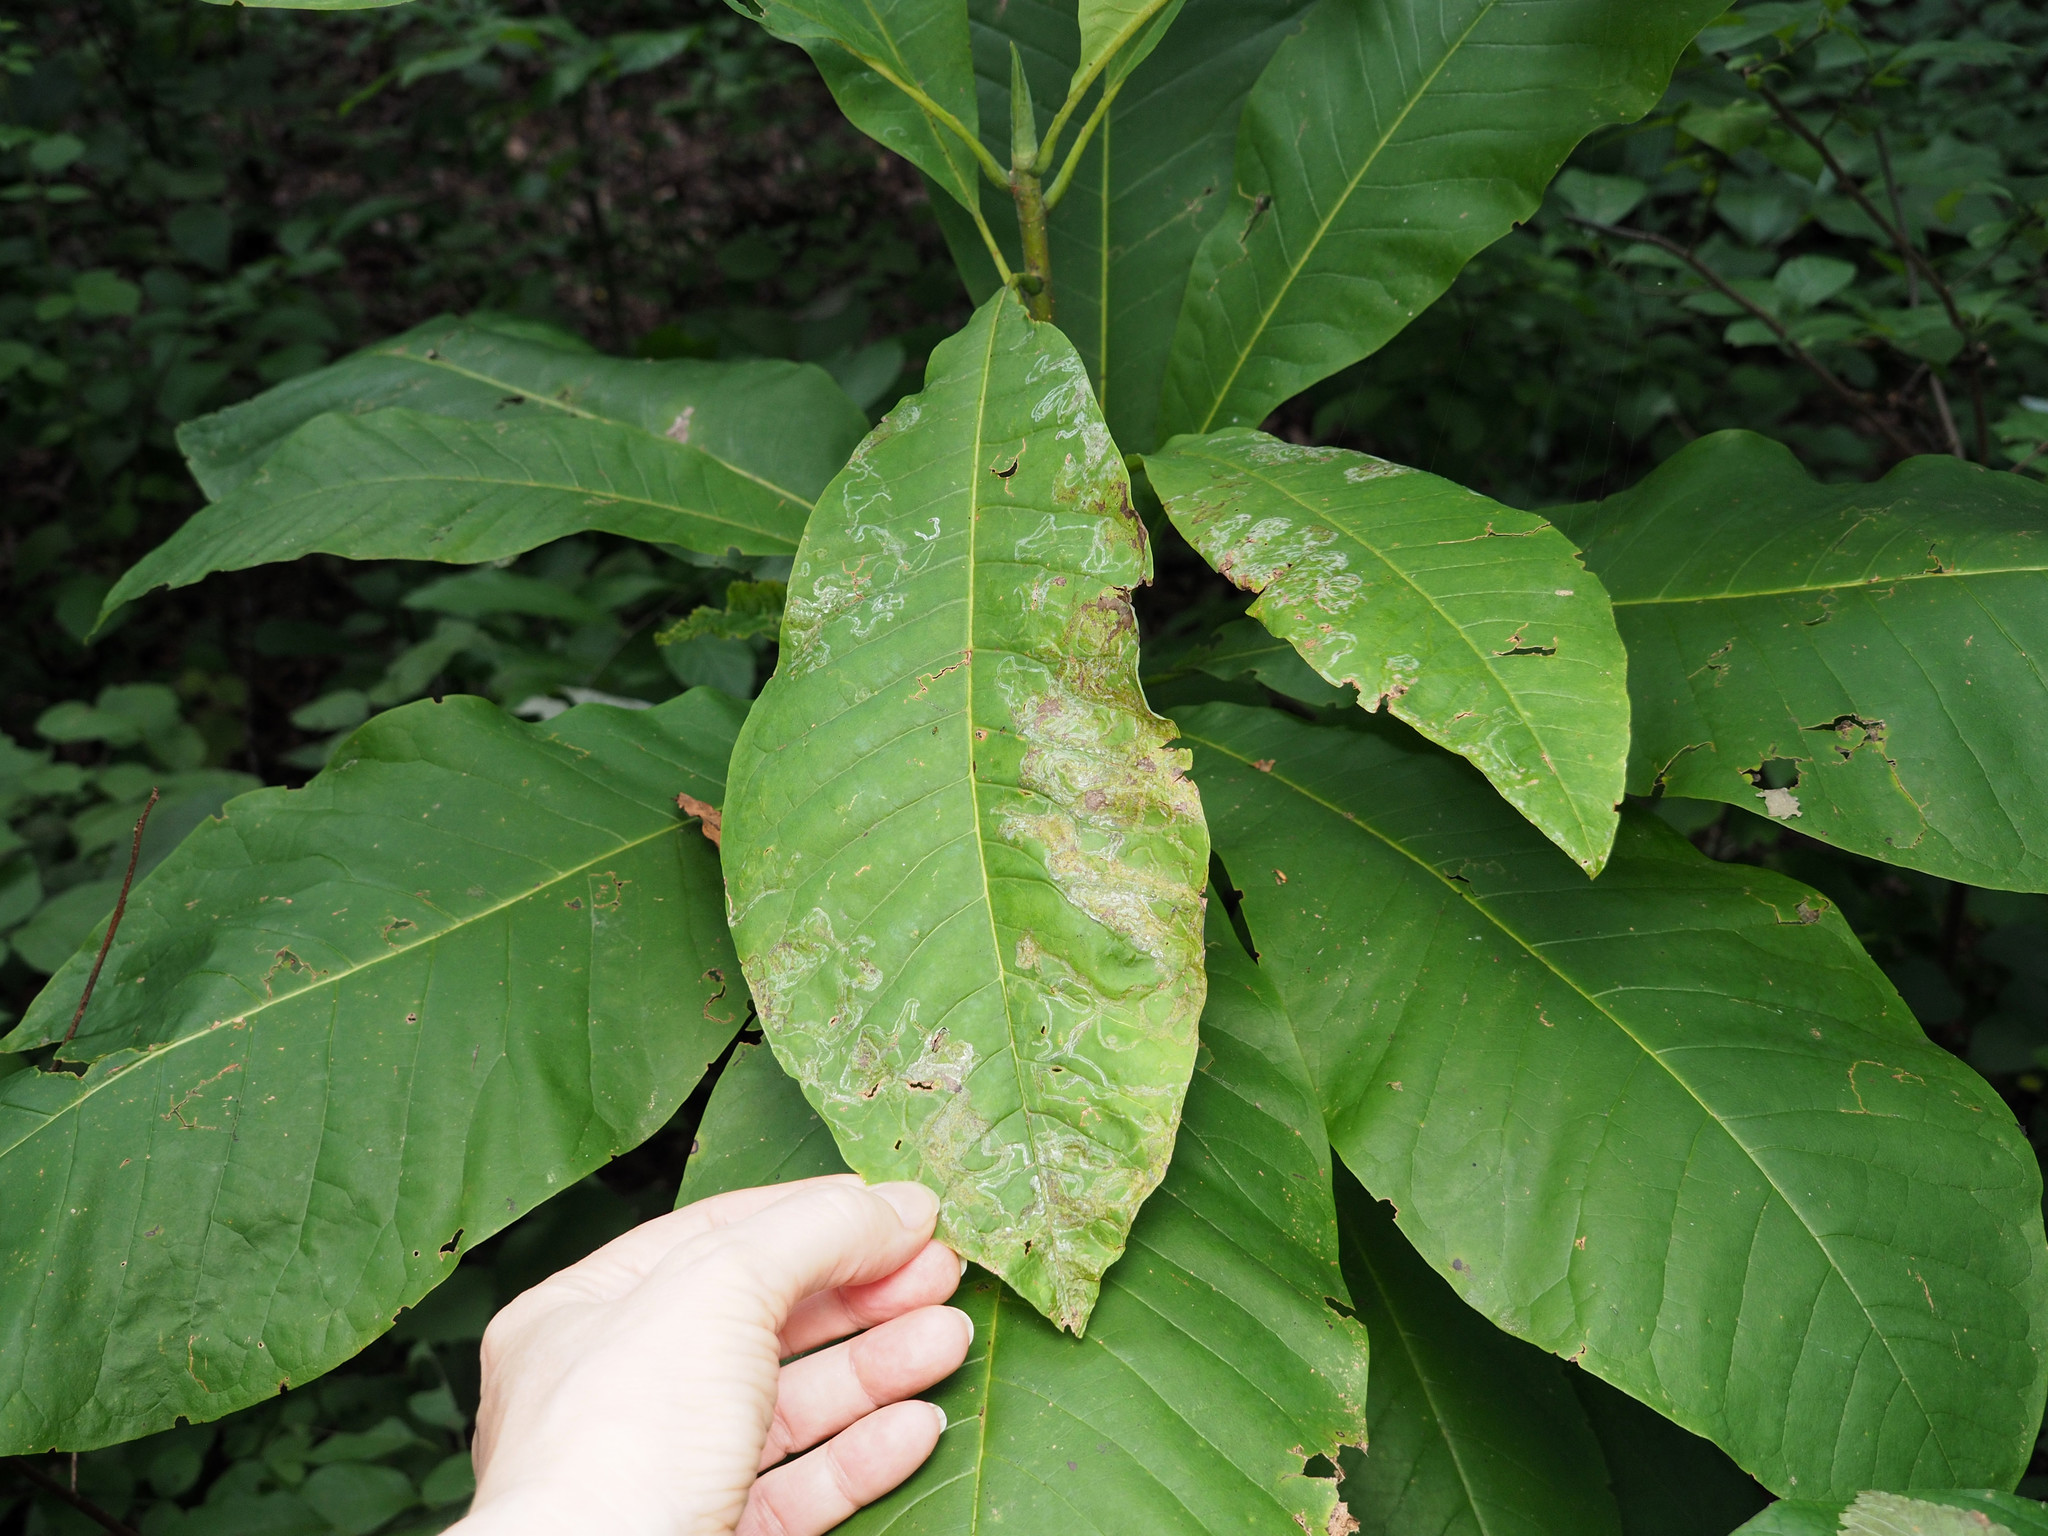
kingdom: Animalia
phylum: Arthropoda
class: Insecta
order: Lepidoptera
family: Gracillariidae
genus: Phyllocnistis
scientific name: Phyllocnistis liriodendronella
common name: Tulip tree leaf miner
